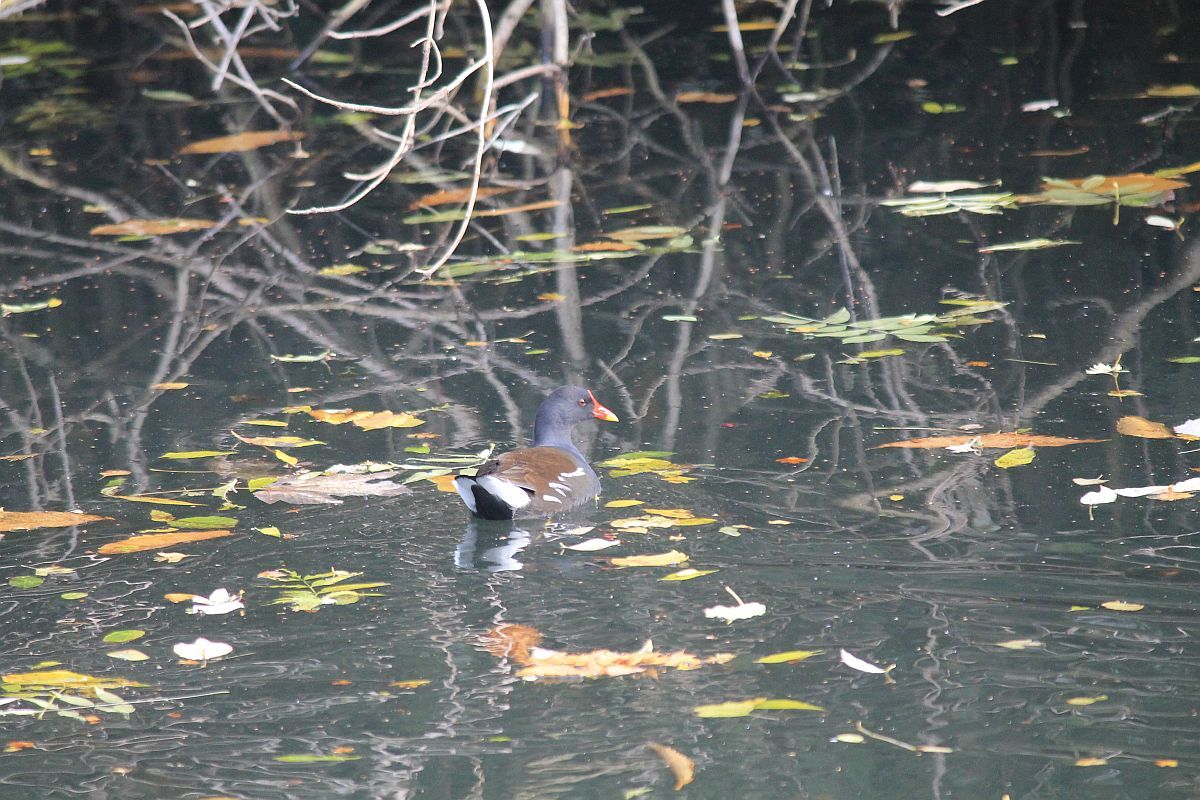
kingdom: Animalia
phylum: Chordata
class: Aves
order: Gruiformes
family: Rallidae
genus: Gallinula
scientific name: Gallinula chloropus
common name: Common moorhen
